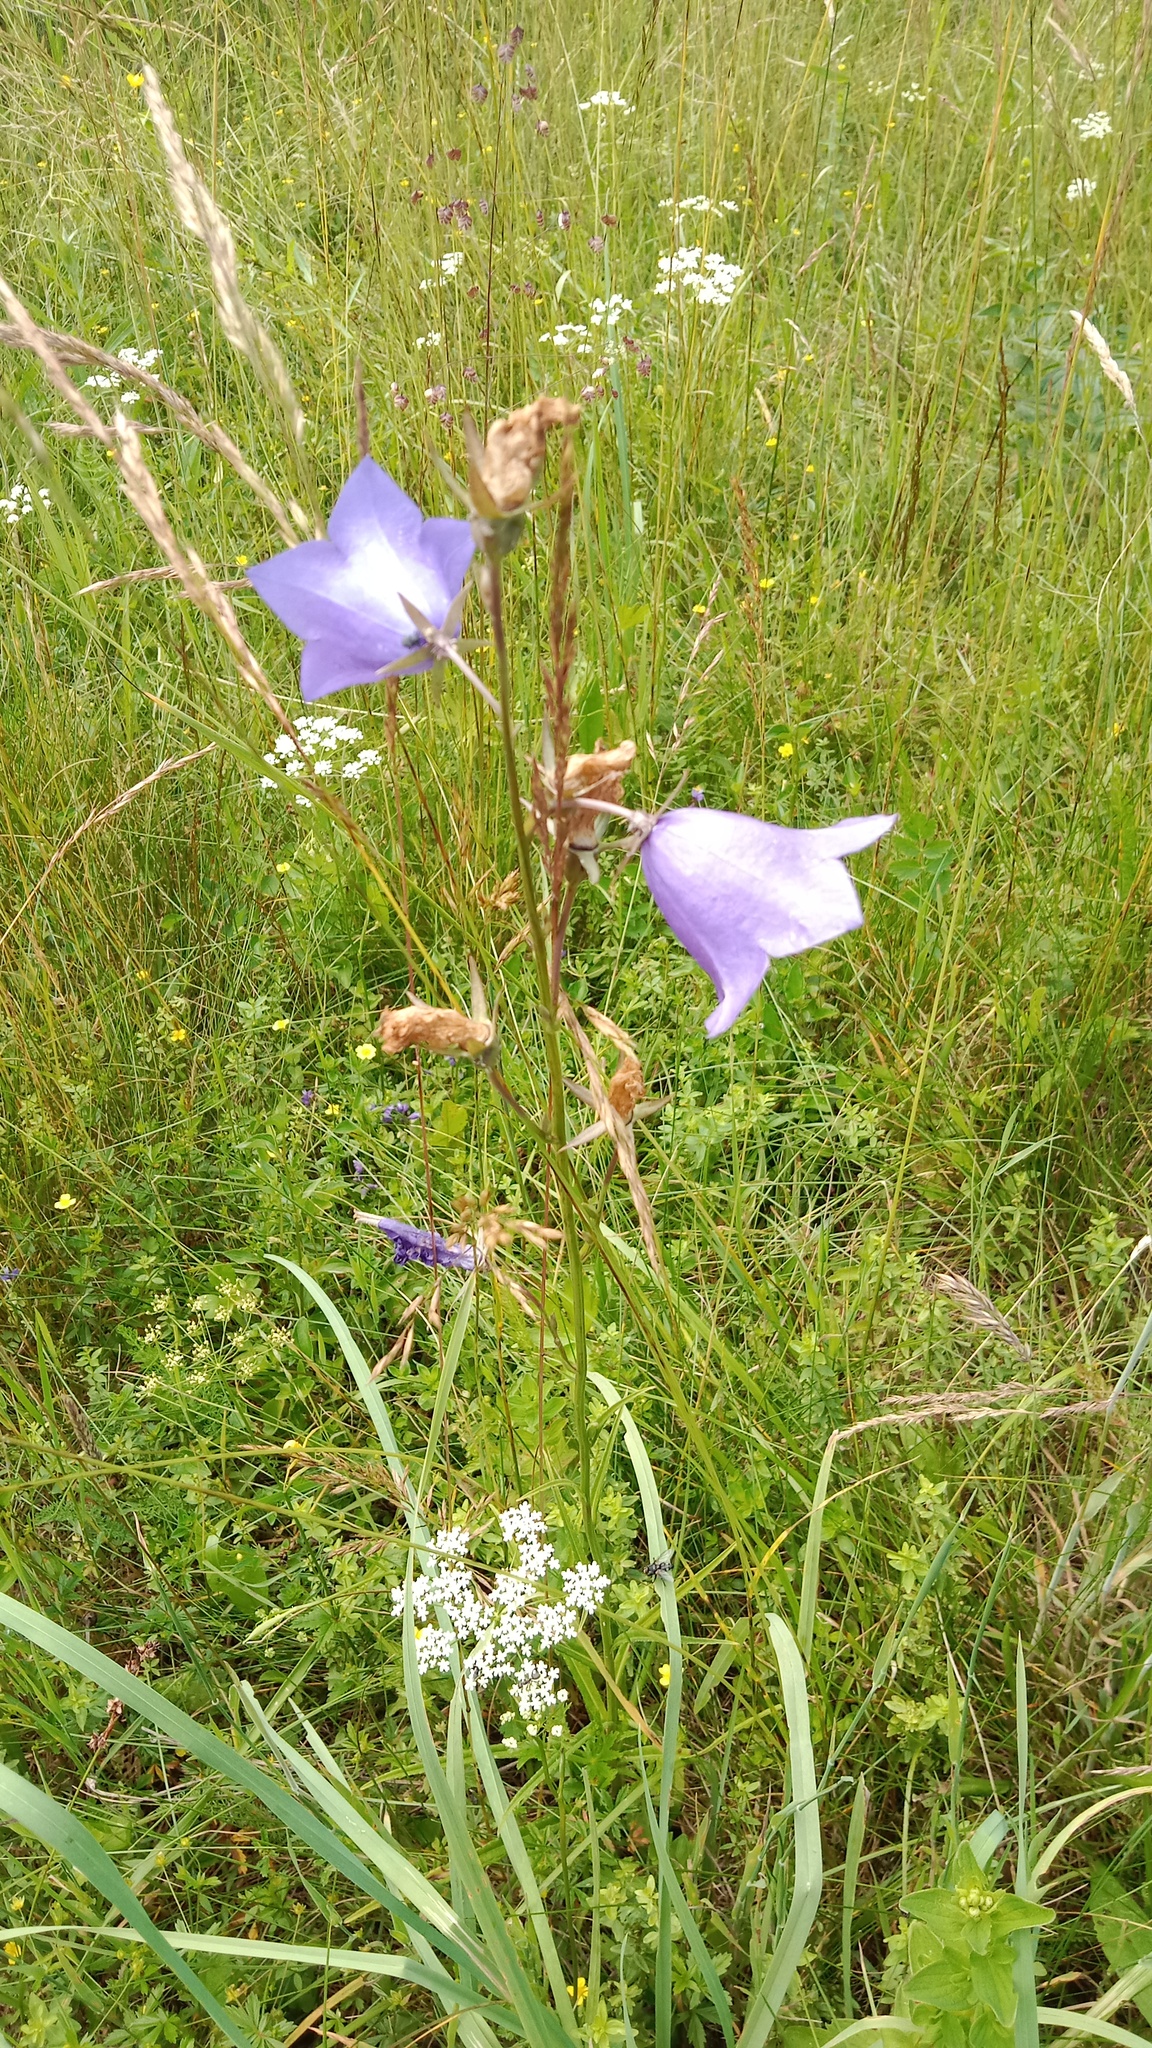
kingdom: Plantae
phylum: Tracheophyta
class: Magnoliopsida
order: Asterales
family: Campanulaceae
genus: Campanula
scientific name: Campanula persicifolia
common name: Peach-leaved bellflower
